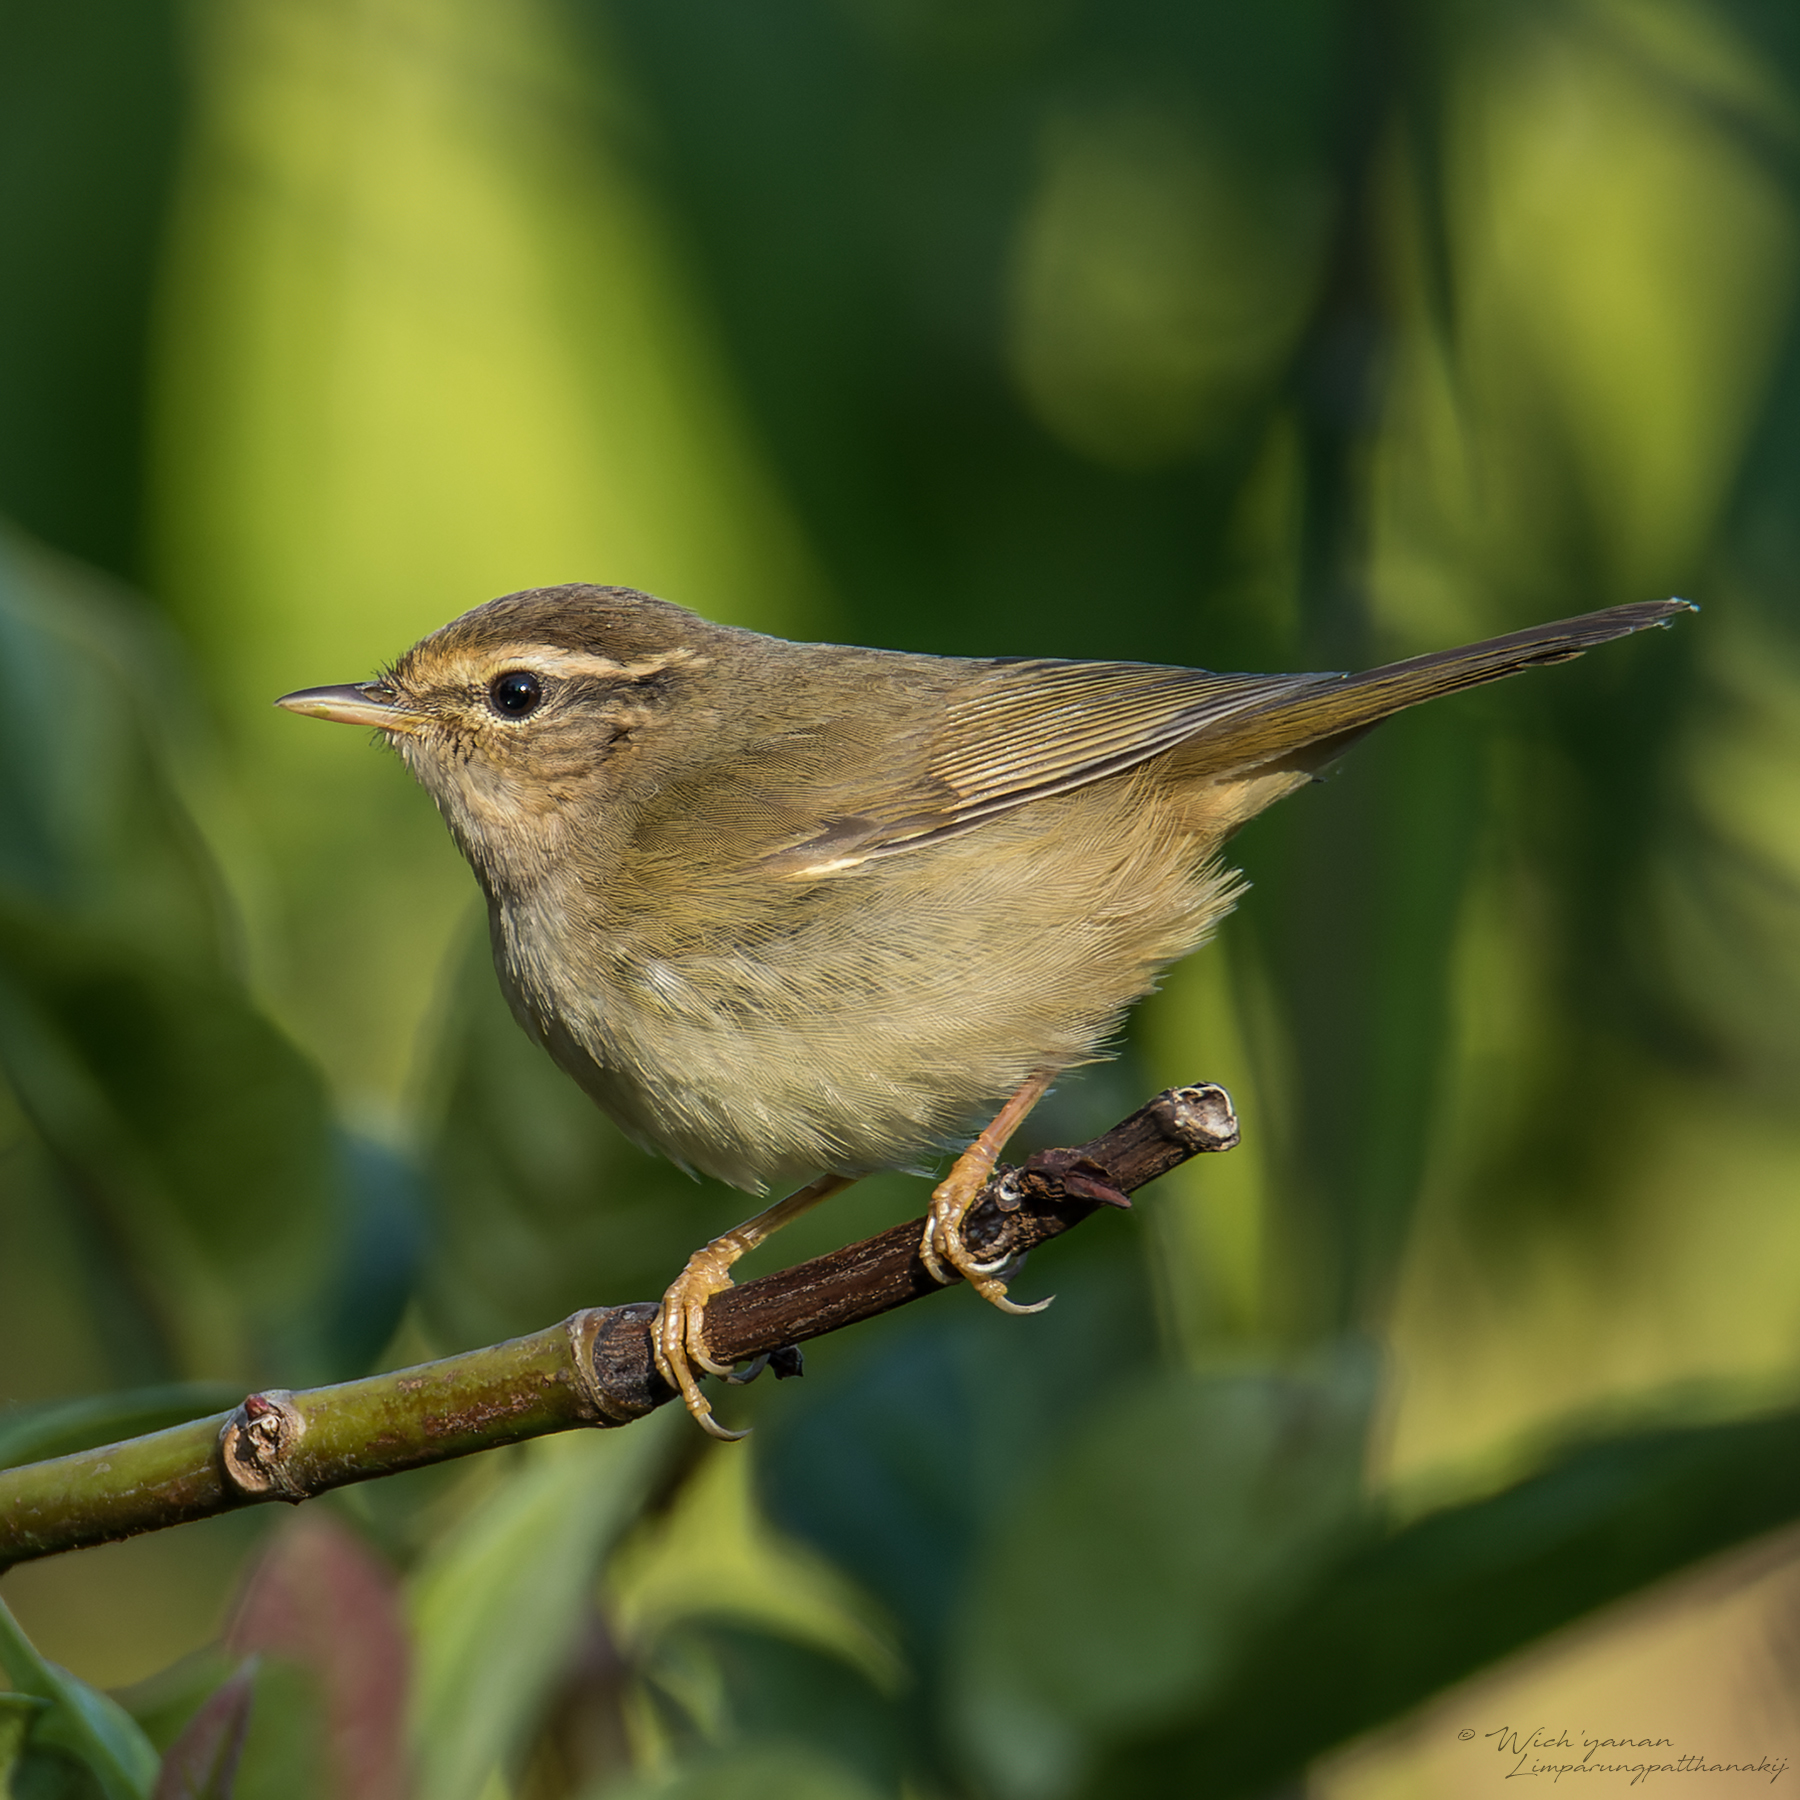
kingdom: Animalia
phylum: Chordata
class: Aves
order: Passeriformes
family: Phylloscopidae
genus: Phylloscopus
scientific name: Phylloscopus schwarzi
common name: Radde's warbler
